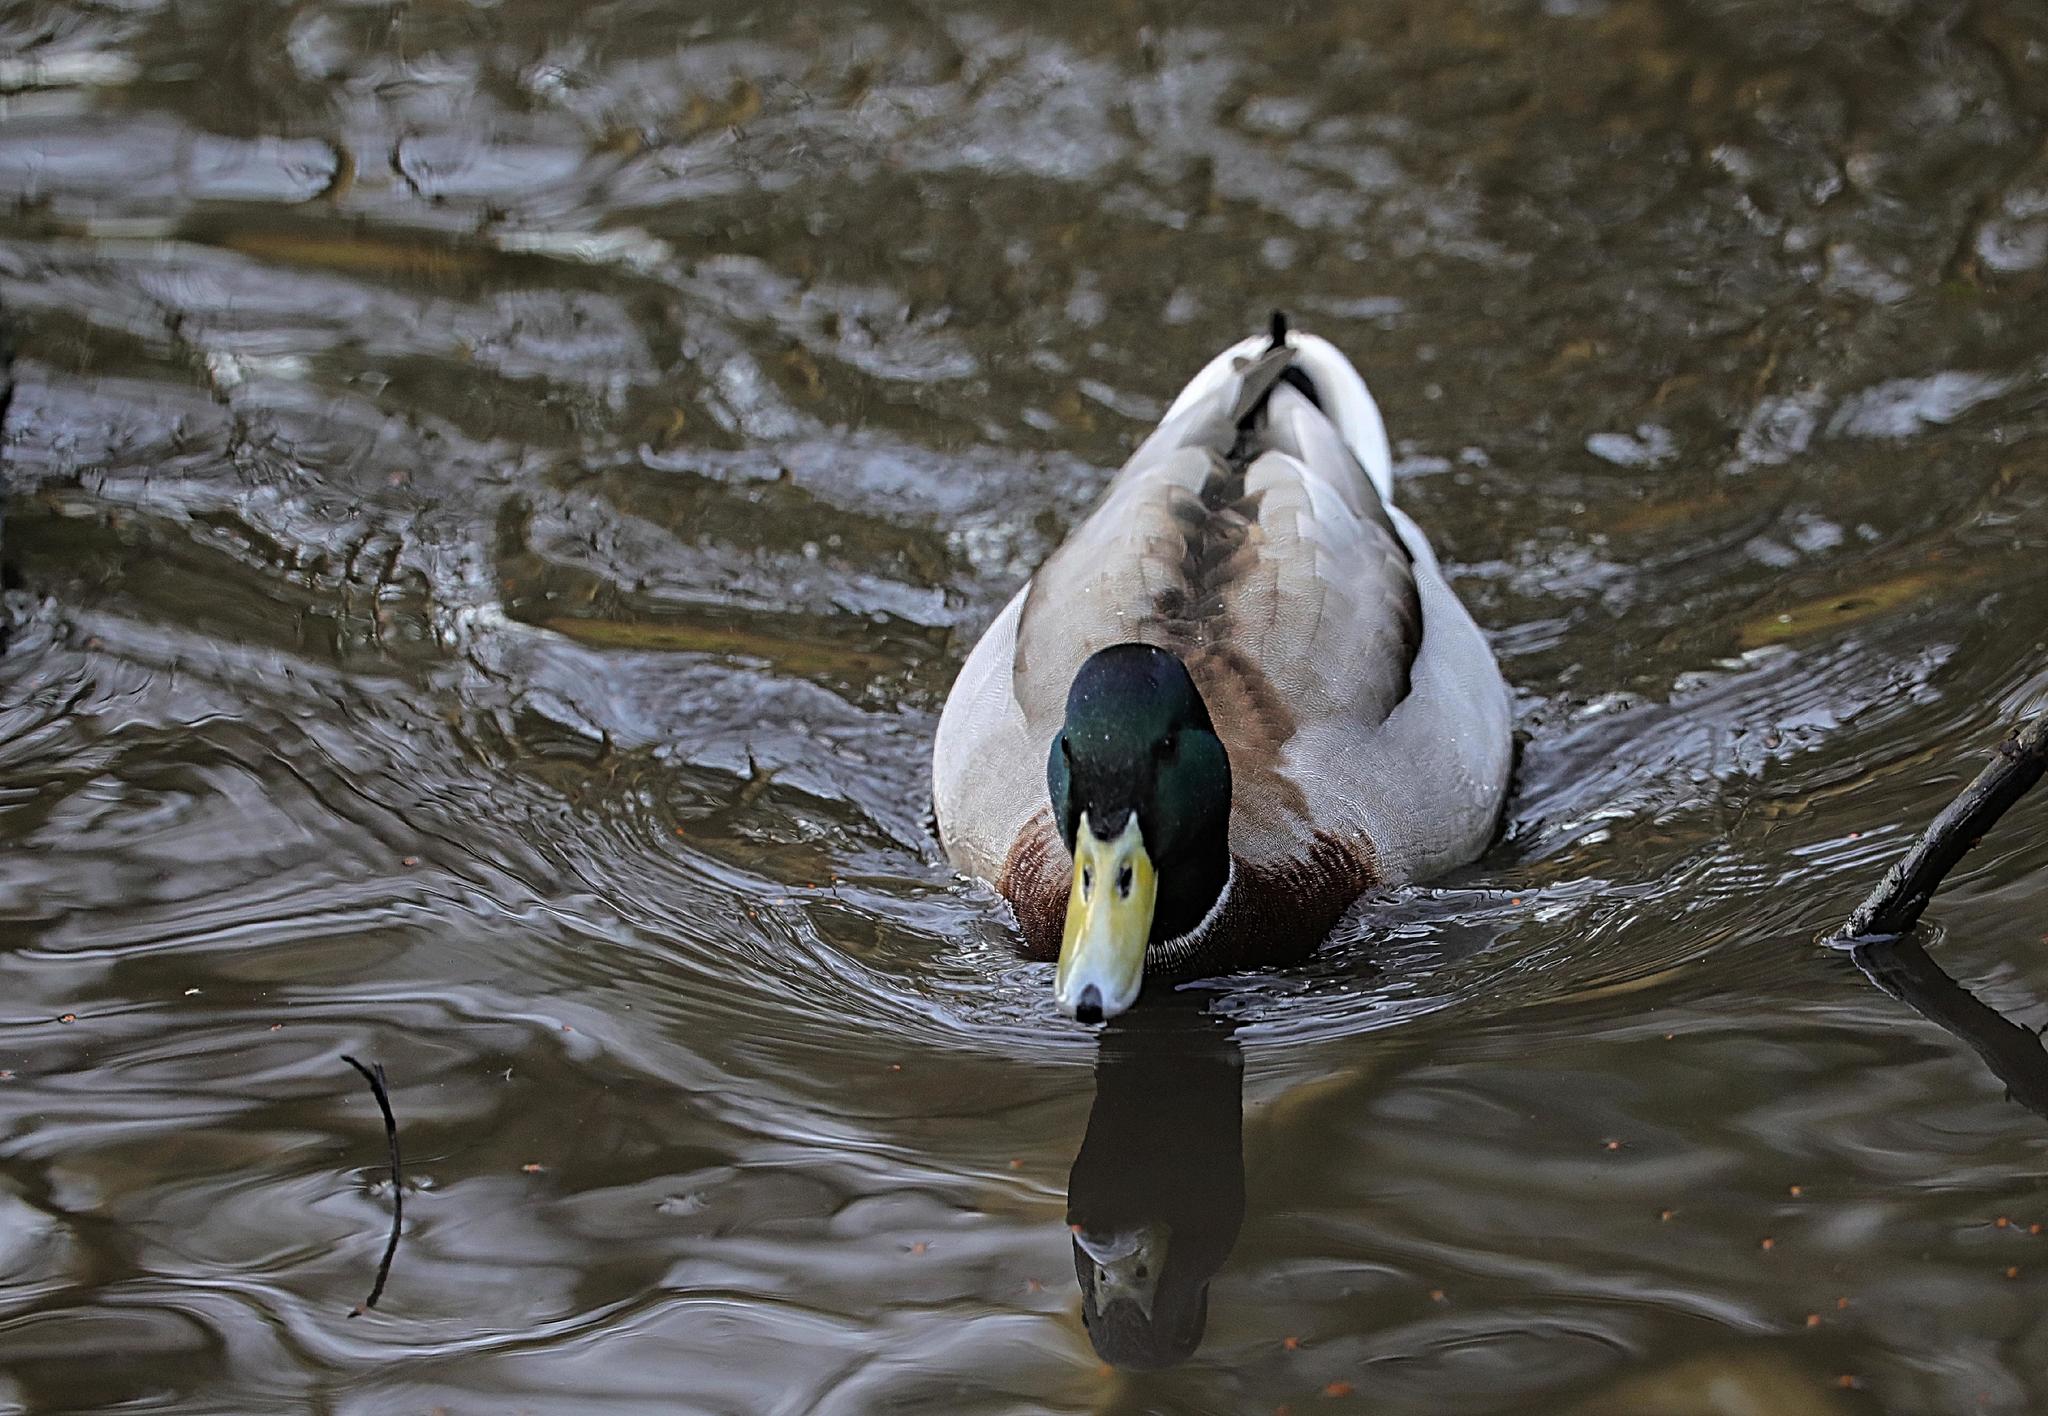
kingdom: Animalia
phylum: Chordata
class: Aves
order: Anseriformes
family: Anatidae
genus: Anas
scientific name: Anas platyrhynchos
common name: Mallard
